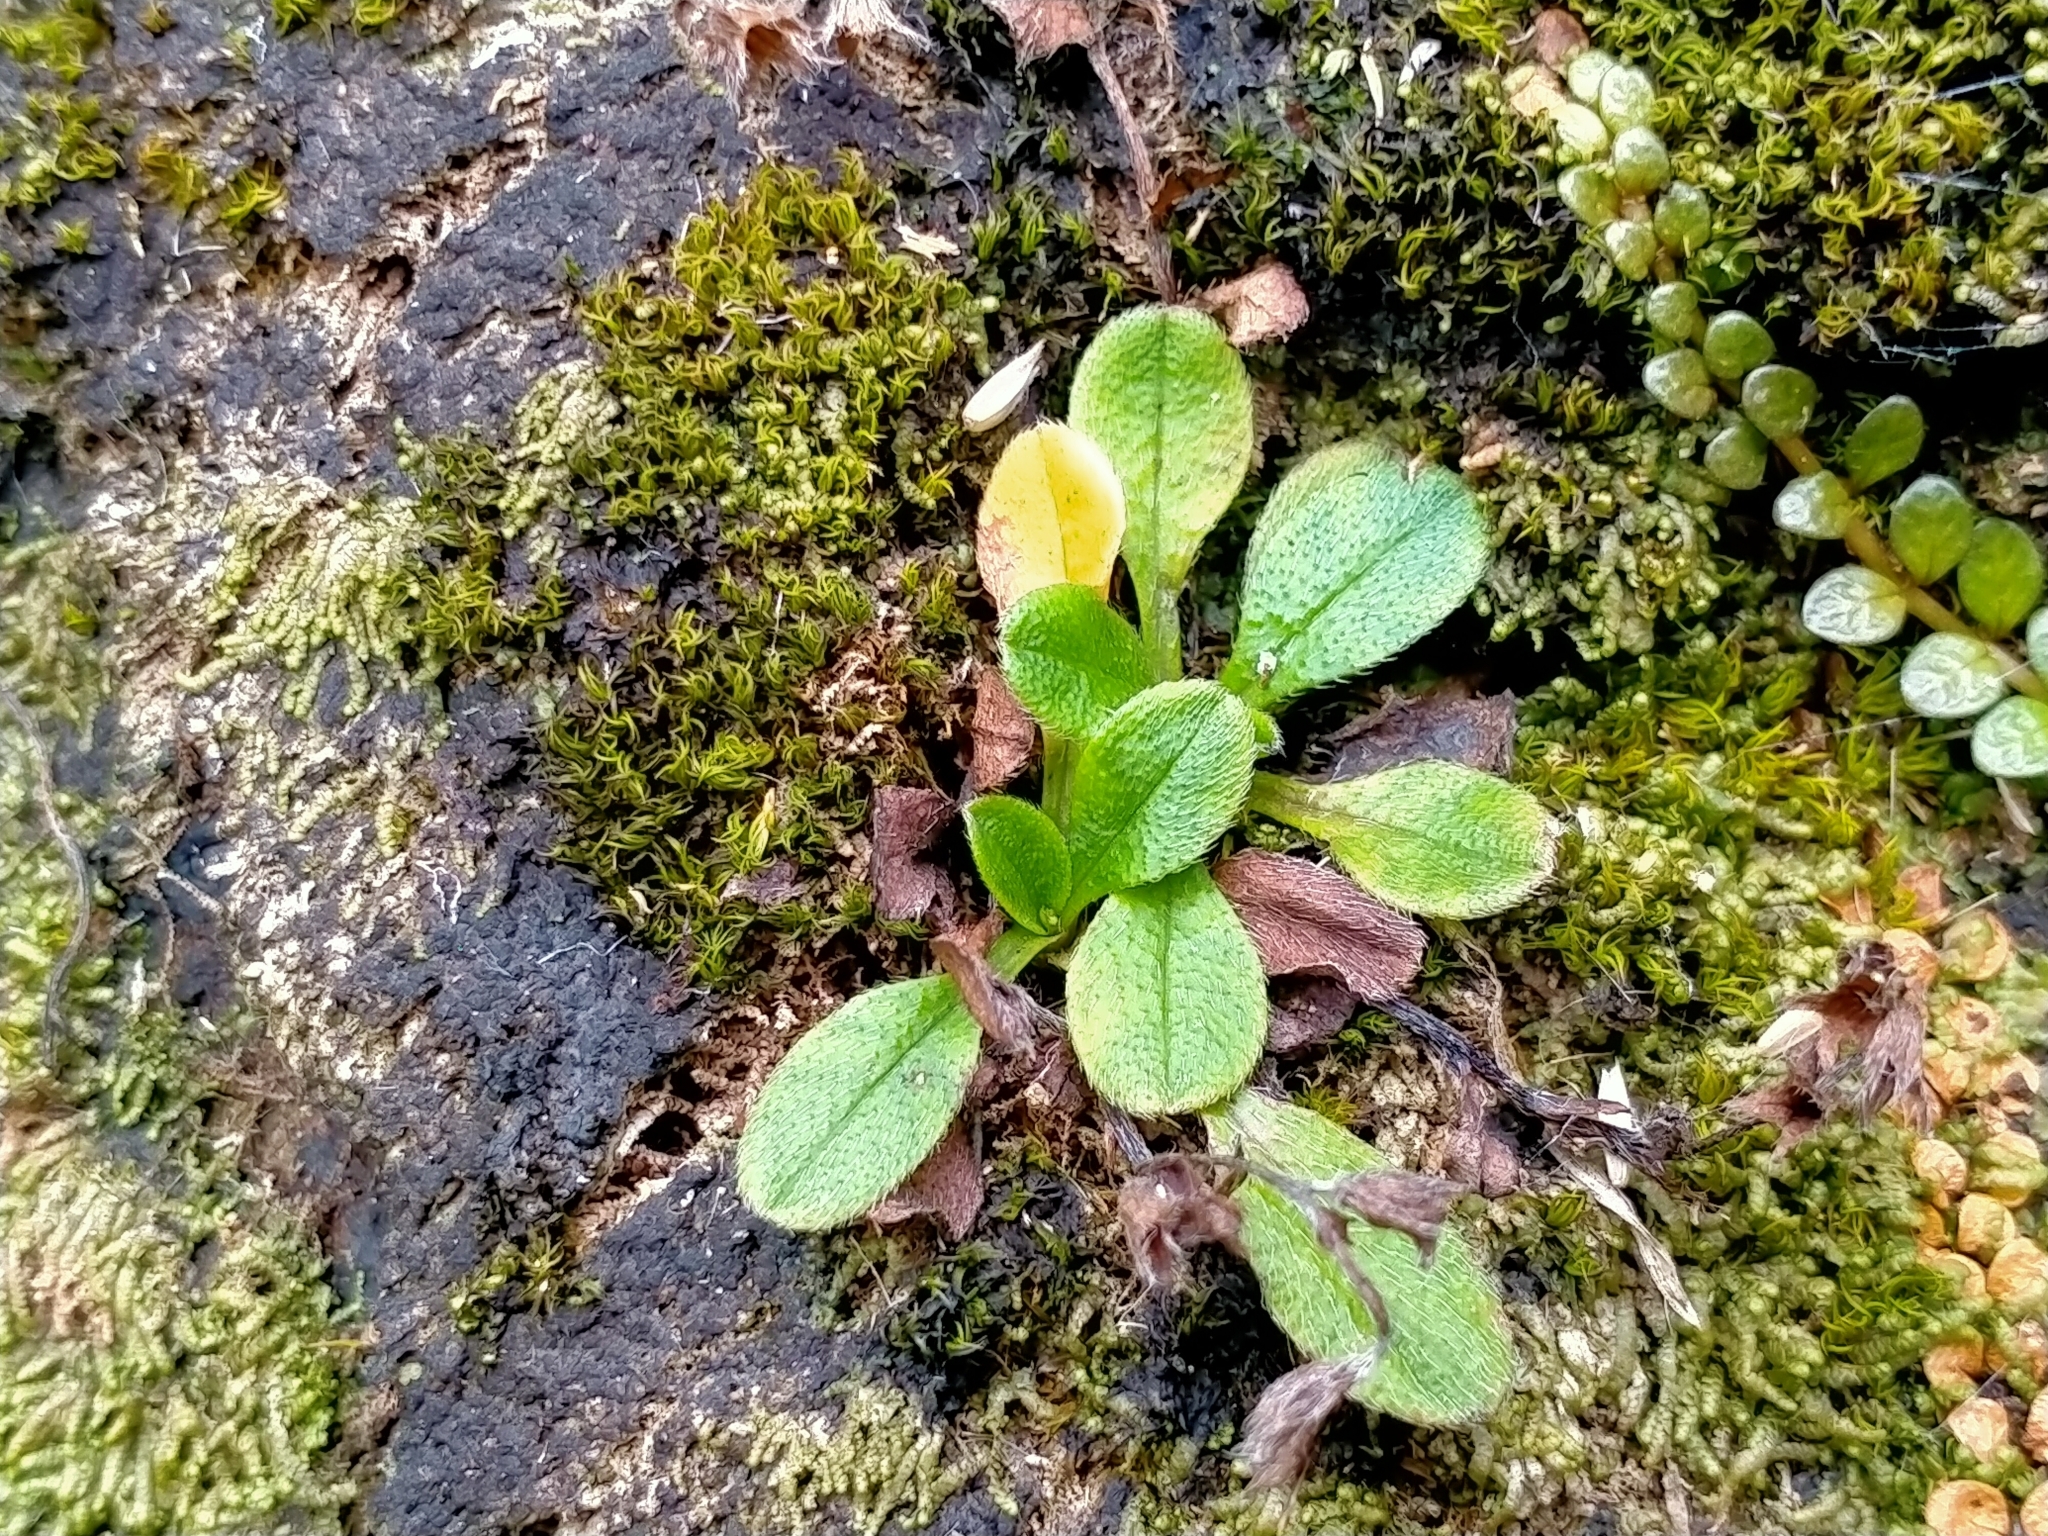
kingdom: Plantae
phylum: Tracheophyta
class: Magnoliopsida
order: Boraginales
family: Boraginaceae
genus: Myosotis
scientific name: Myosotis antarctica
